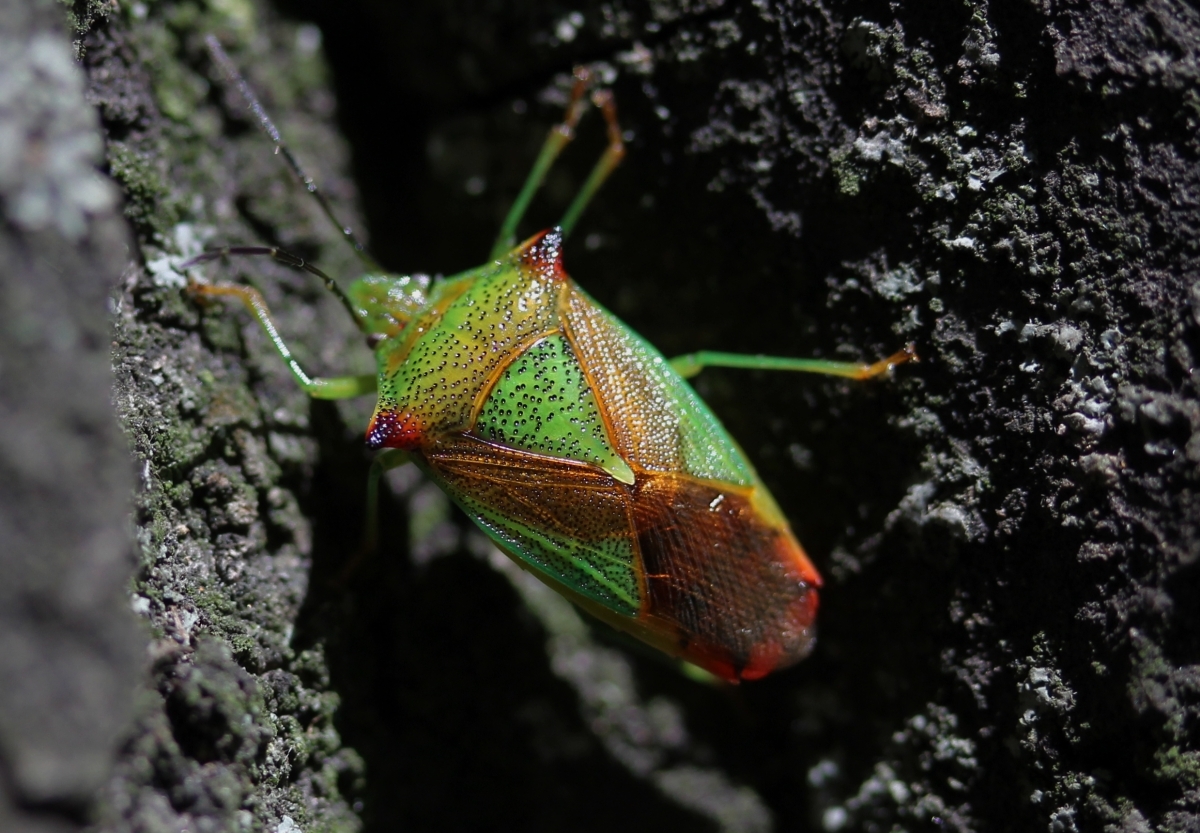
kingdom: Animalia
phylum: Arthropoda
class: Insecta
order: Hemiptera
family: Acanthosomatidae
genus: Acanthosoma
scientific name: Acanthosoma haemorrhoidale
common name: Hawthorn shieldbug
